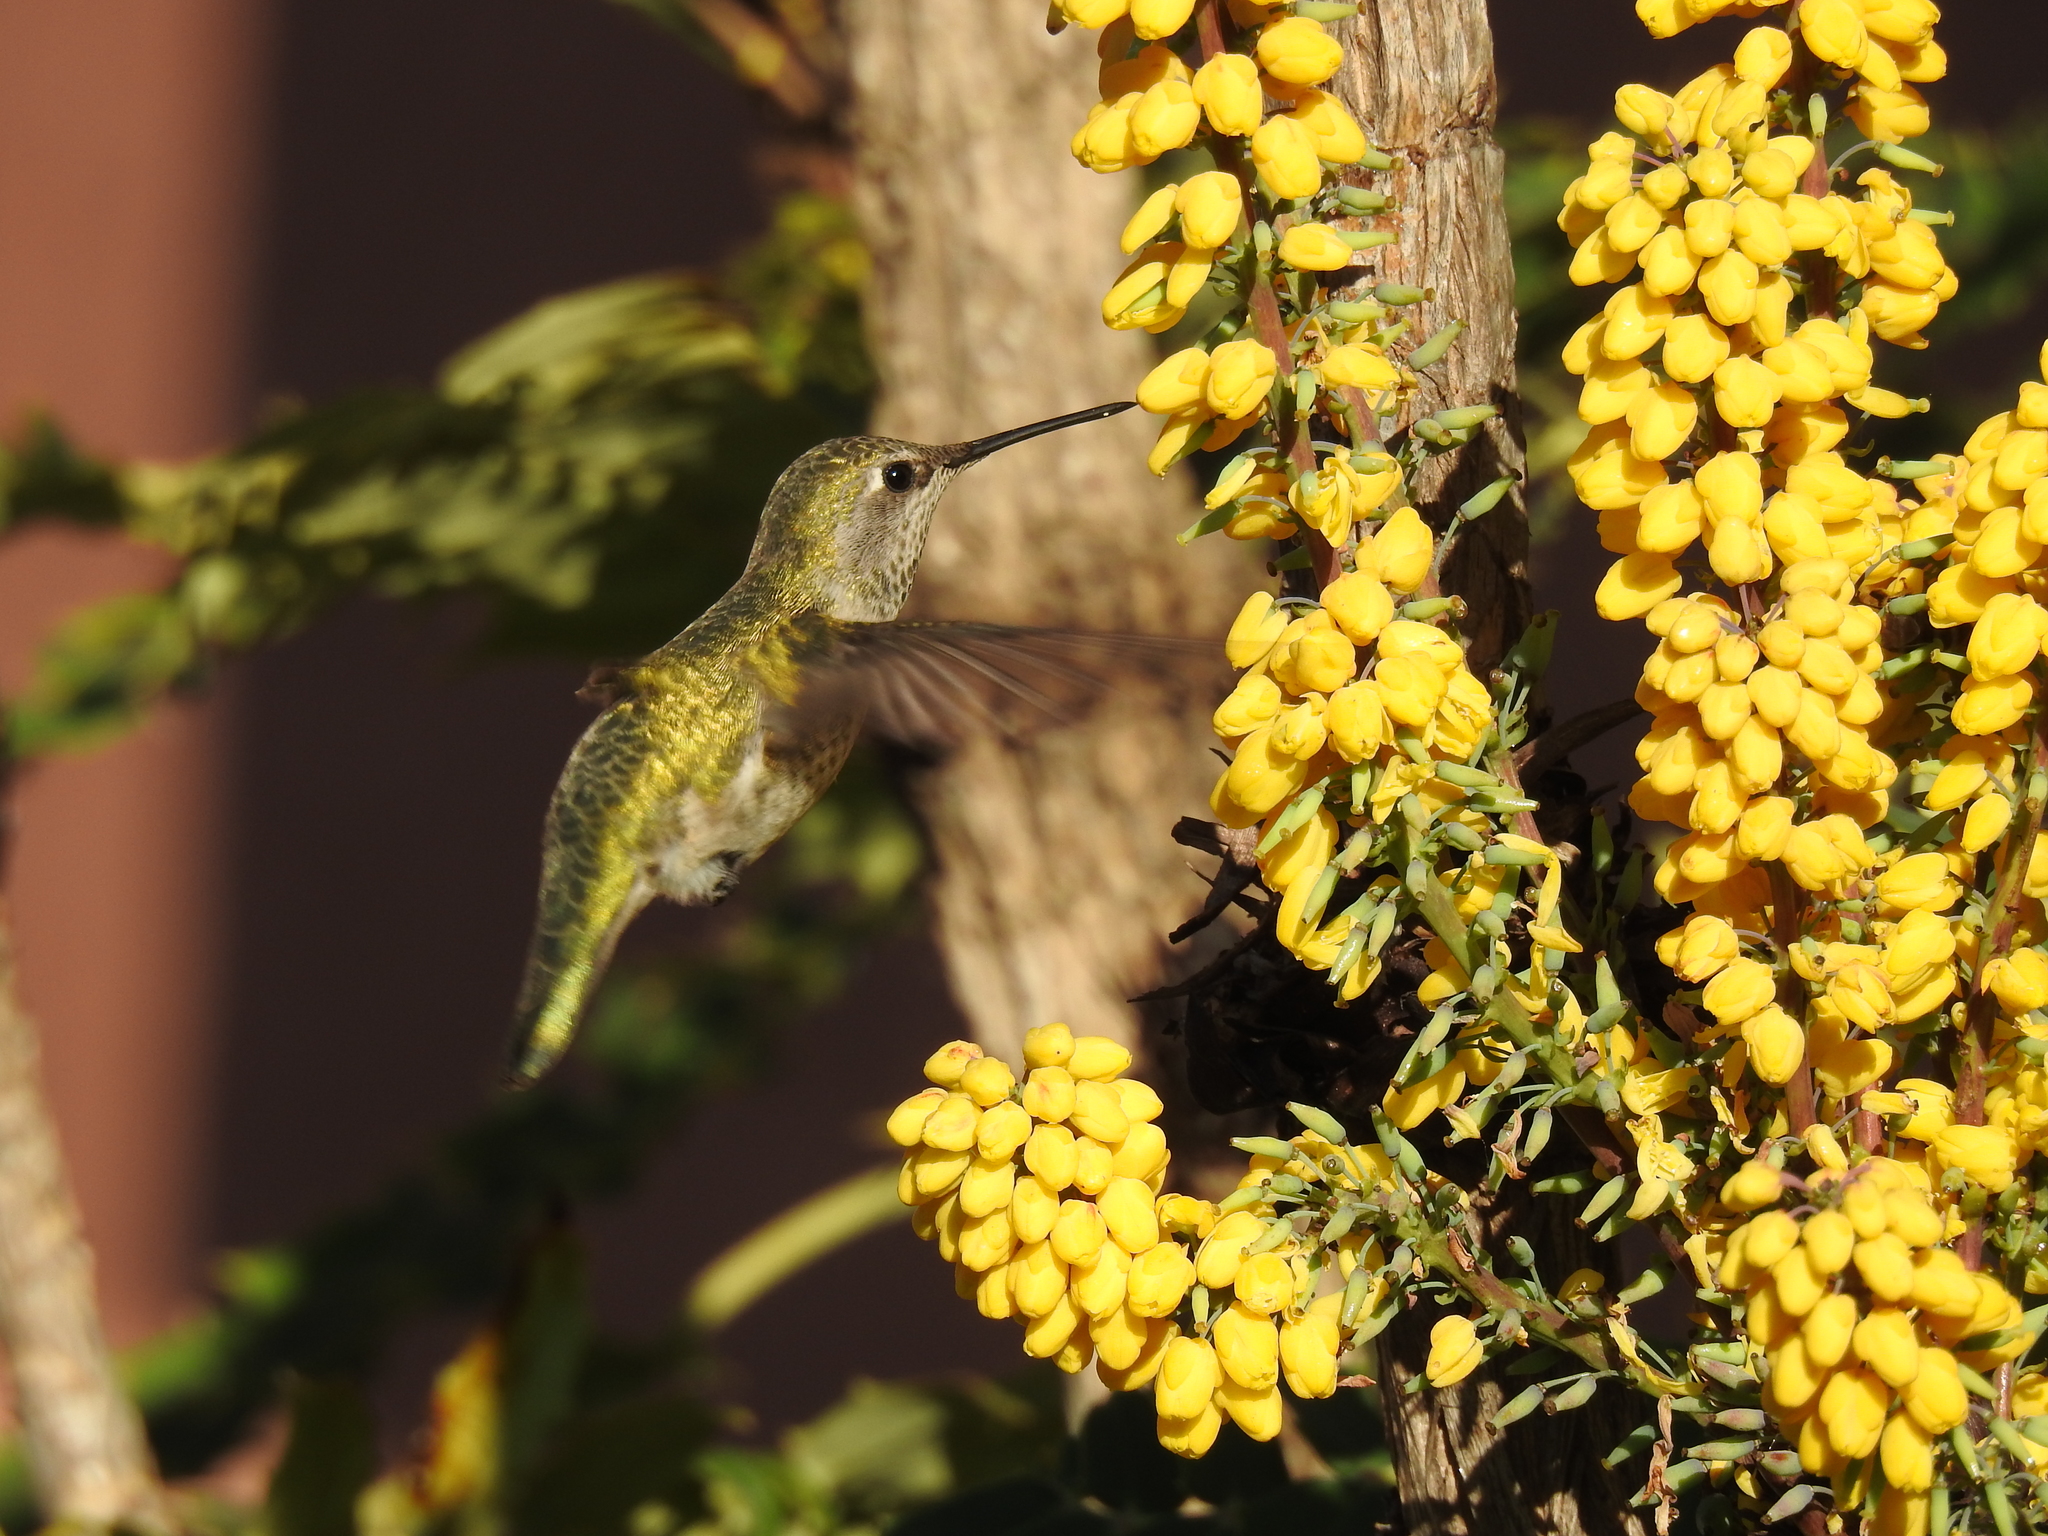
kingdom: Animalia
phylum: Chordata
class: Aves
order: Apodiformes
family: Trochilidae
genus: Calypte
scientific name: Calypte anna
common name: Anna's hummingbird
